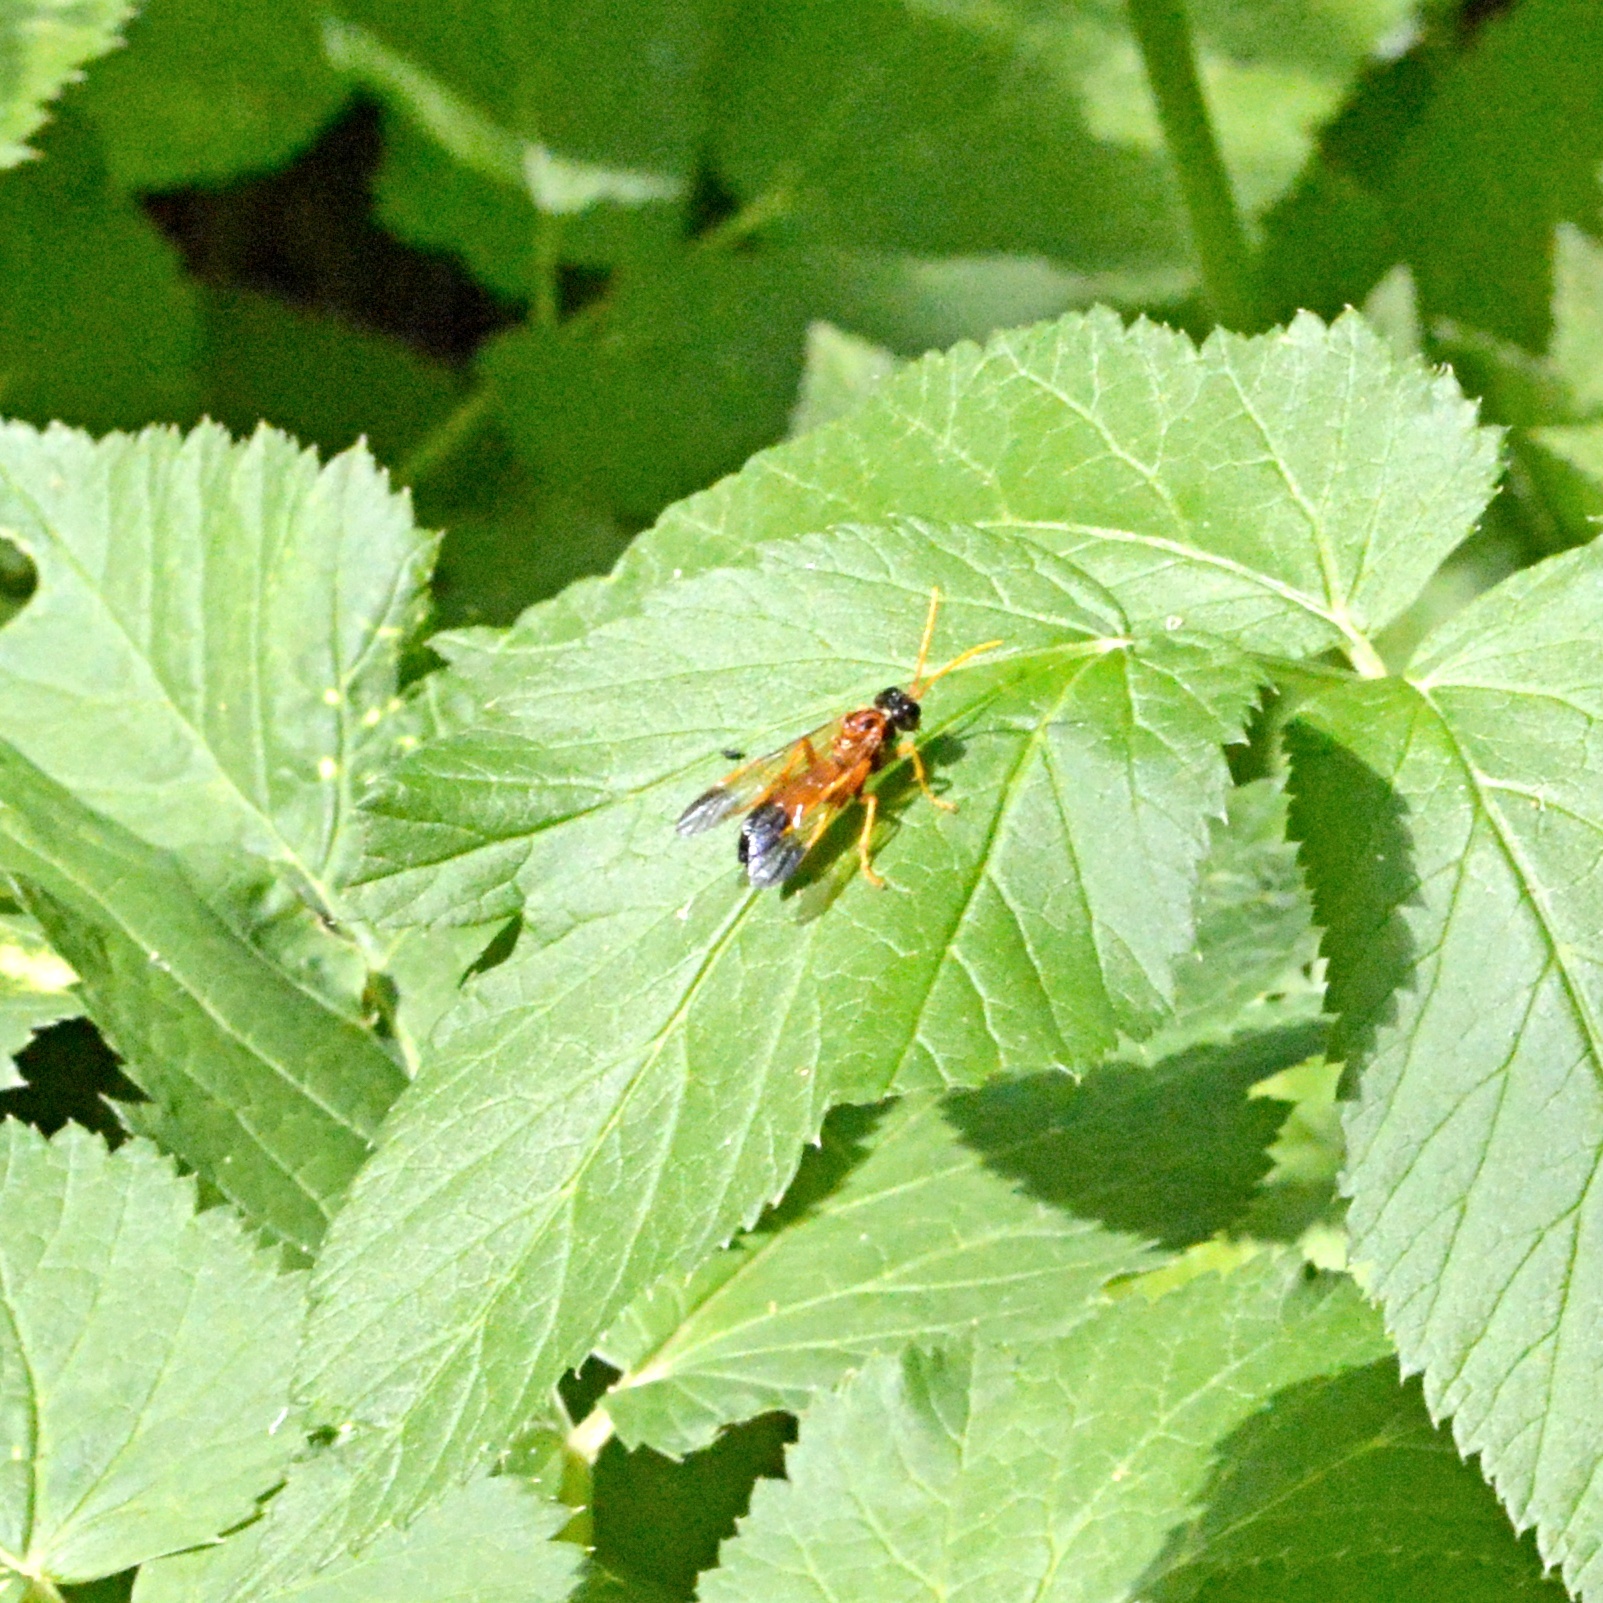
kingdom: Animalia
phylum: Arthropoda
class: Insecta
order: Hymenoptera
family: Tenthredinidae
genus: Tenthredo
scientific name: Tenthredo campestris
